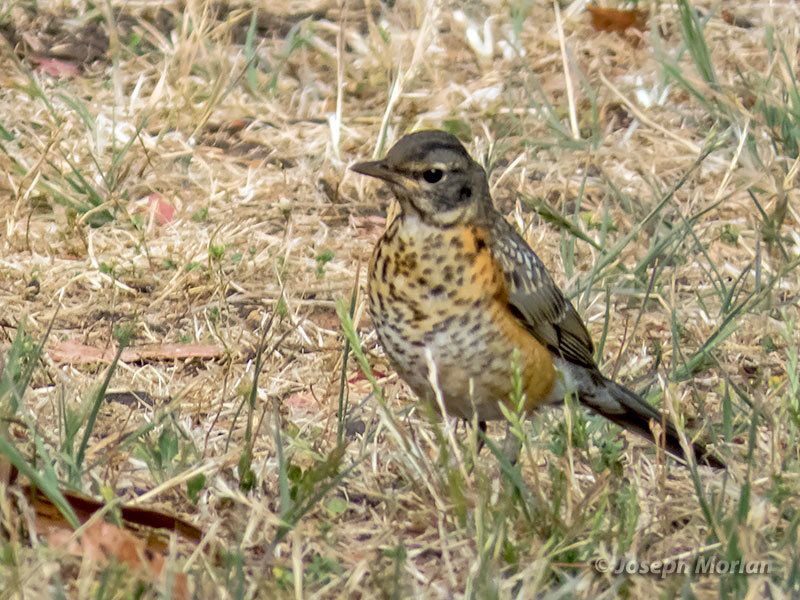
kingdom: Animalia
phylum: Chordata
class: Aves
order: Passeriformes
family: Turdidae
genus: Turdus
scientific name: Turdus migratorius
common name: American robin
